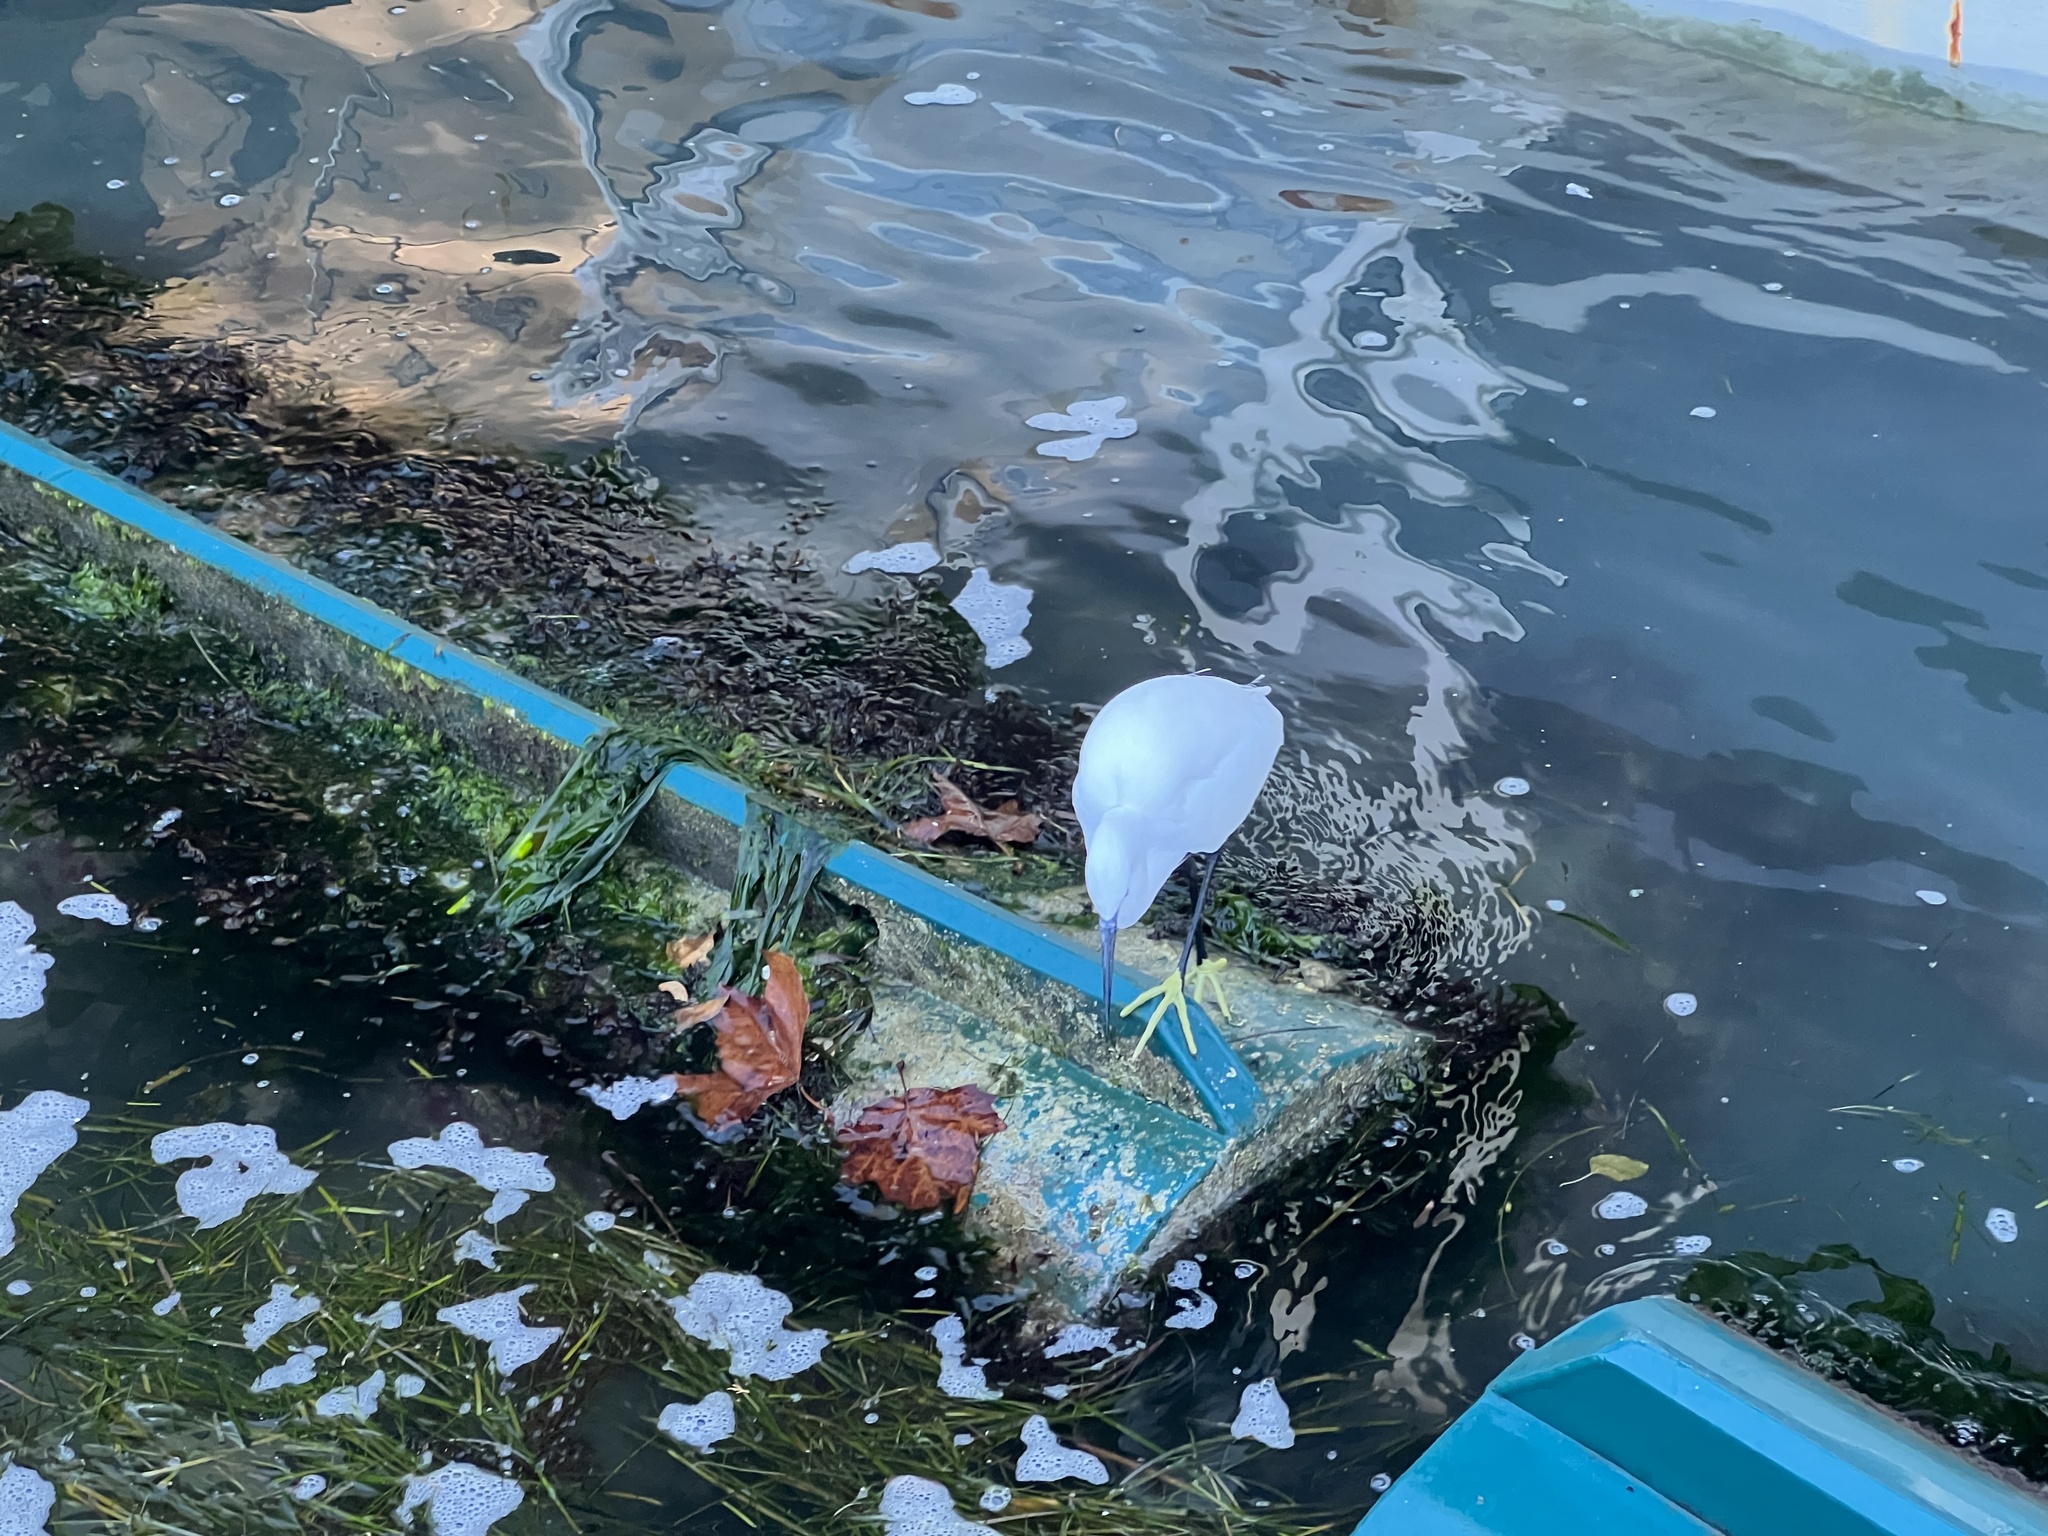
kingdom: Animalia
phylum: Chordata
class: Aves
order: Pelecaniformes
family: Ardeidae
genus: Egretta
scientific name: Egretta garzetta
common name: Little egret
